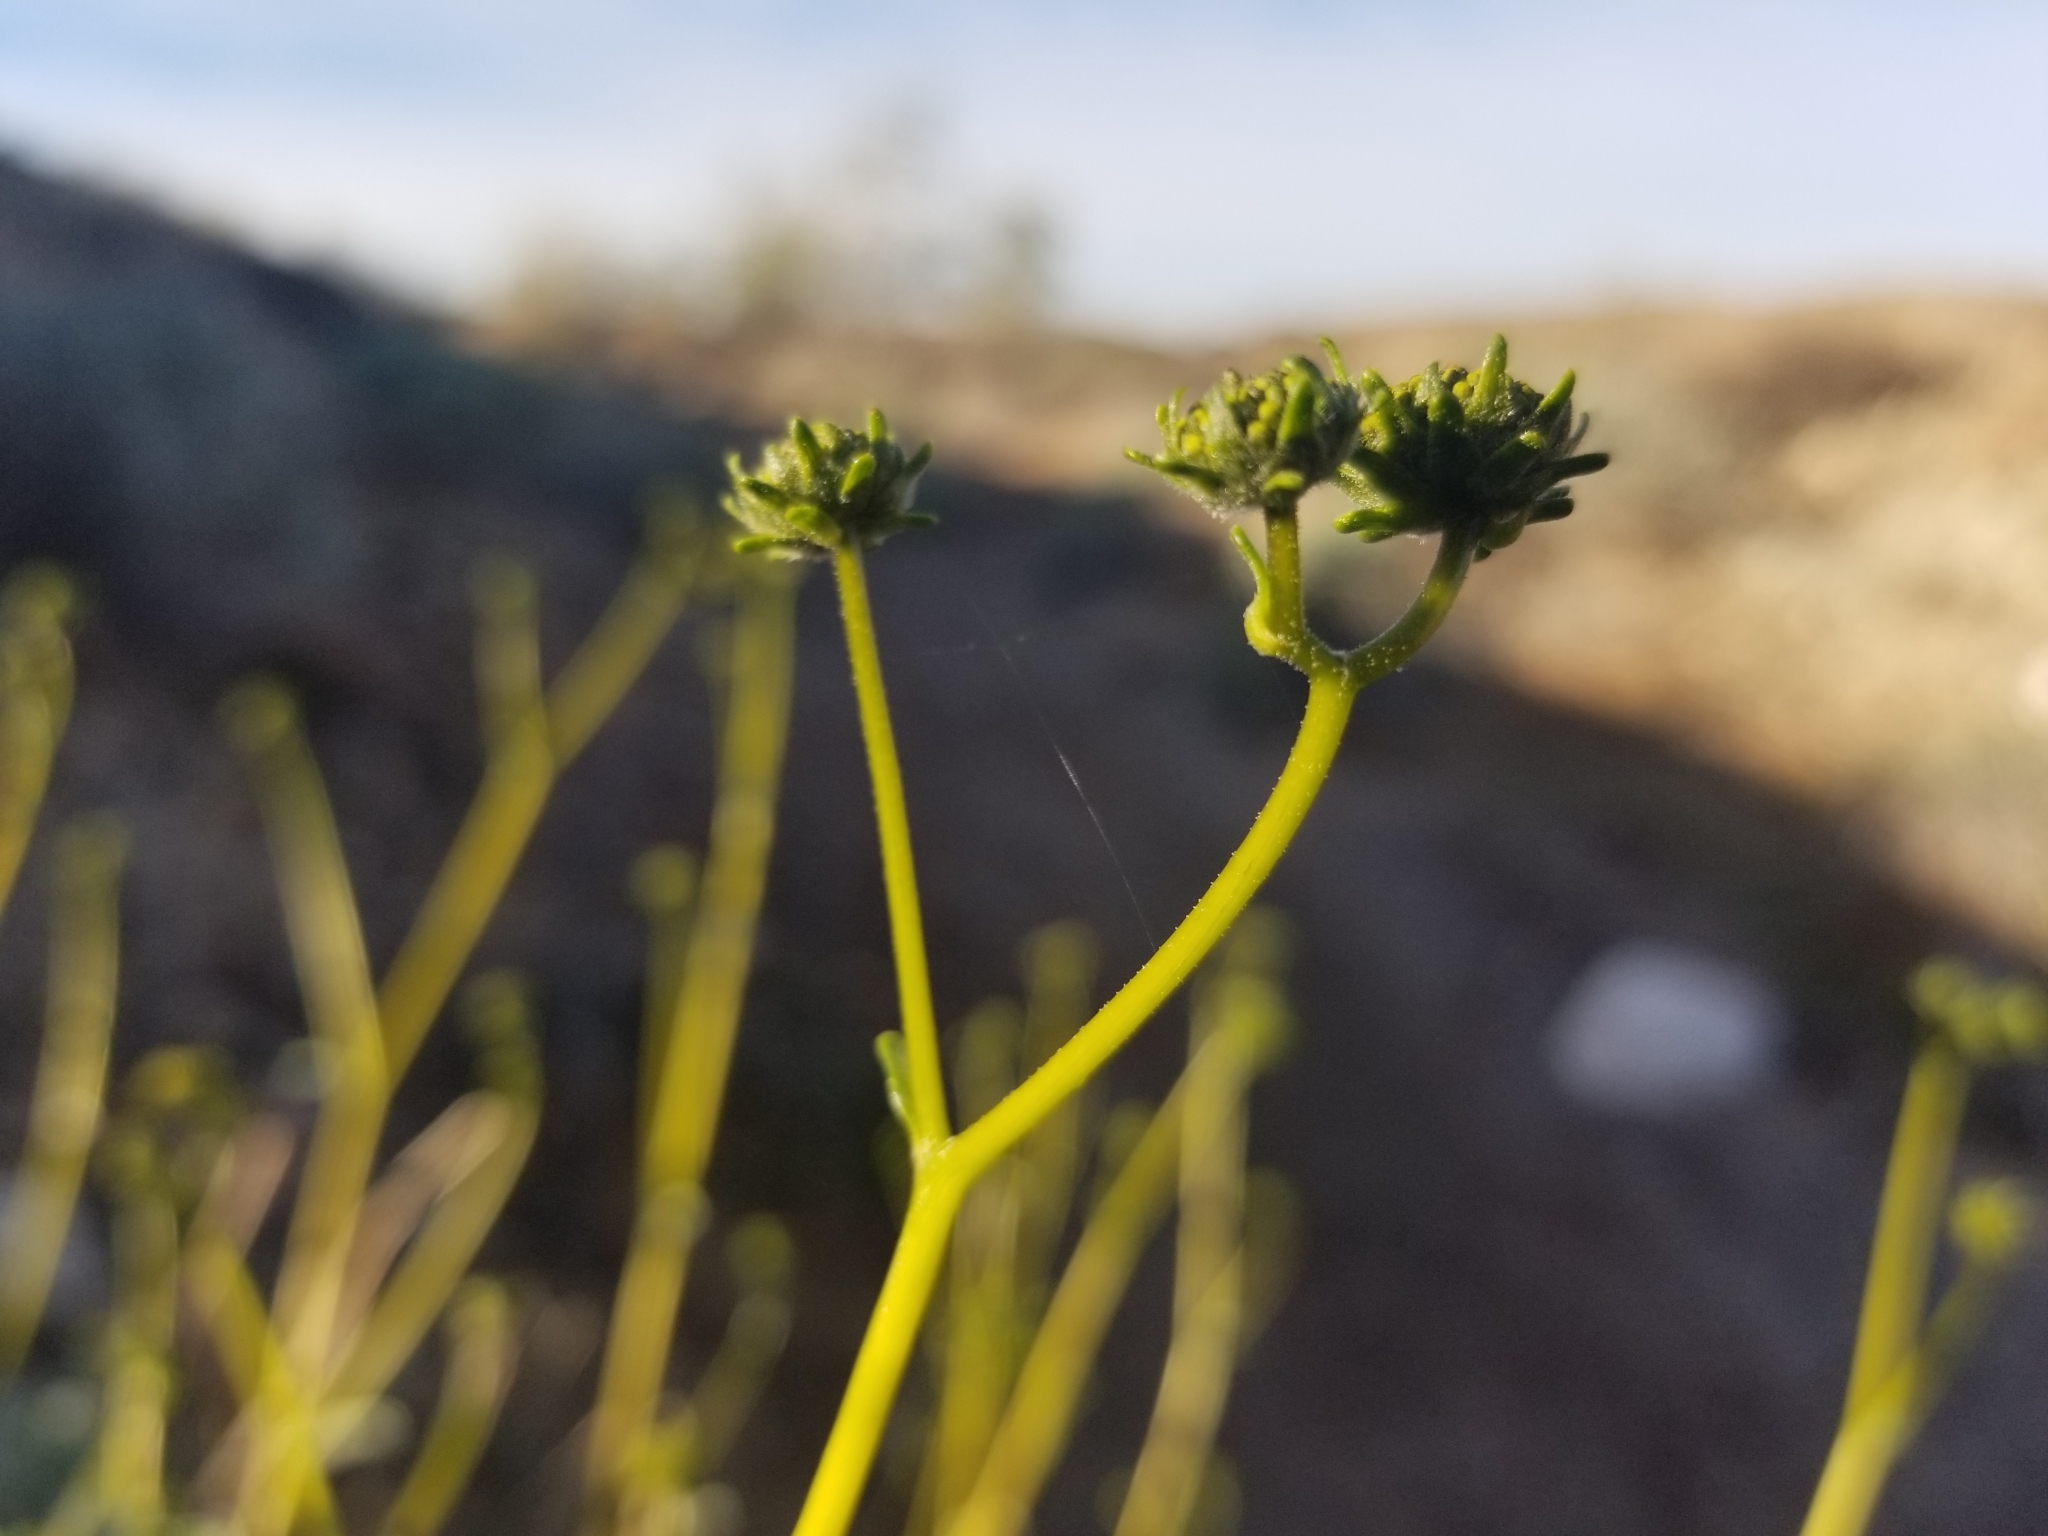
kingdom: Plantae
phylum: Tracheophyta
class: Magnoliopsida
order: Asterales
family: Asteraceae
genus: Encelia
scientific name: Encelia farinosa
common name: Brittlebush
